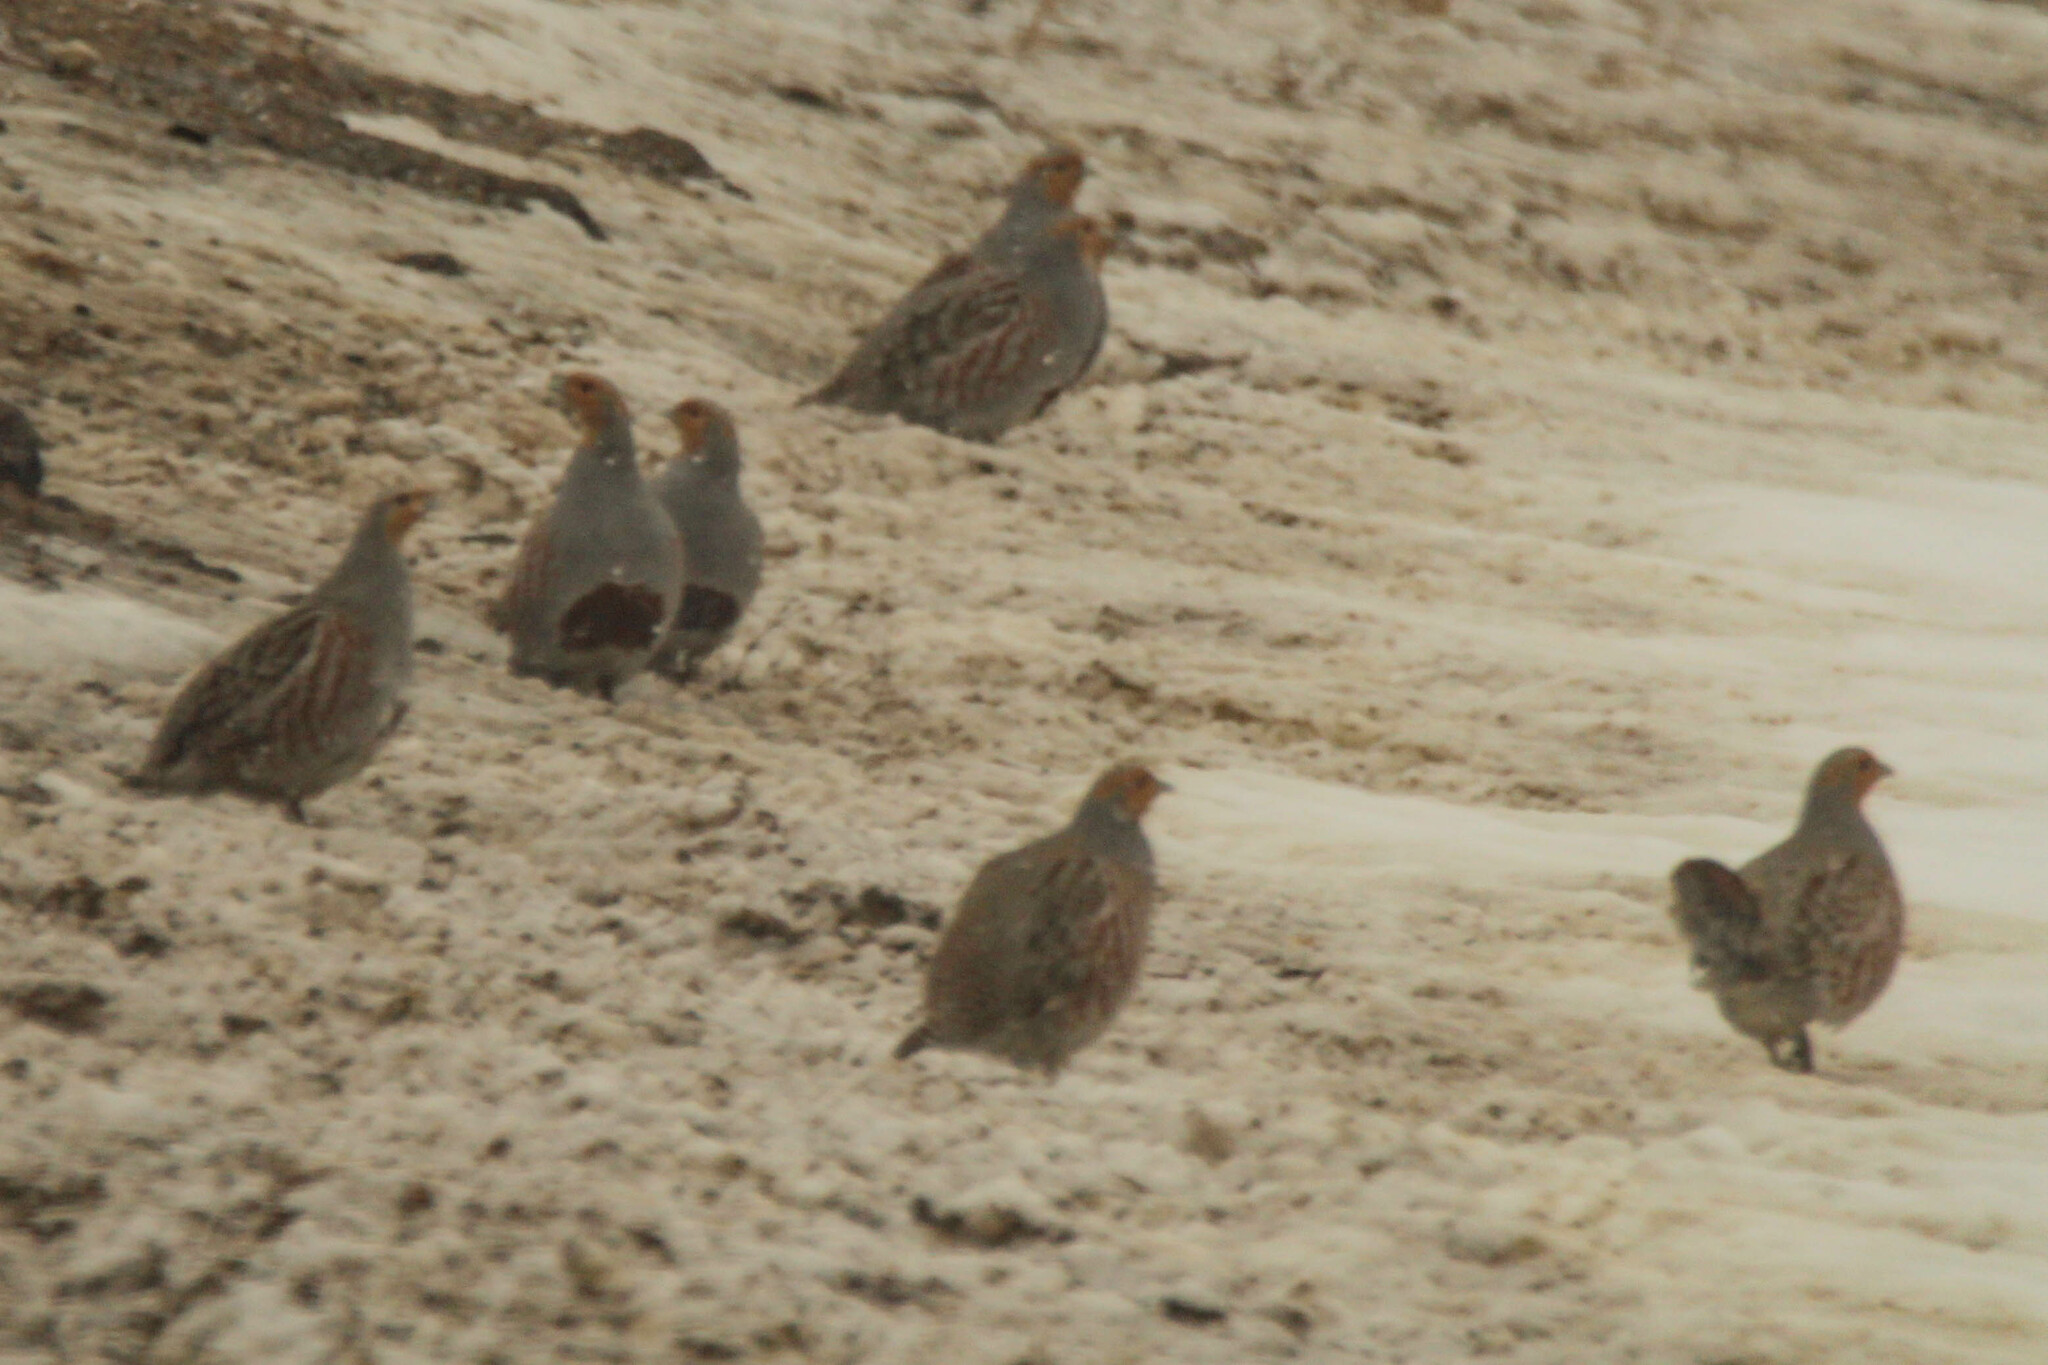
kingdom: Animalia
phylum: Chordata
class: Aves
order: Galliformes
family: Phasianidae
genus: Perdix
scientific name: Perdix perdix
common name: Grey partridge
